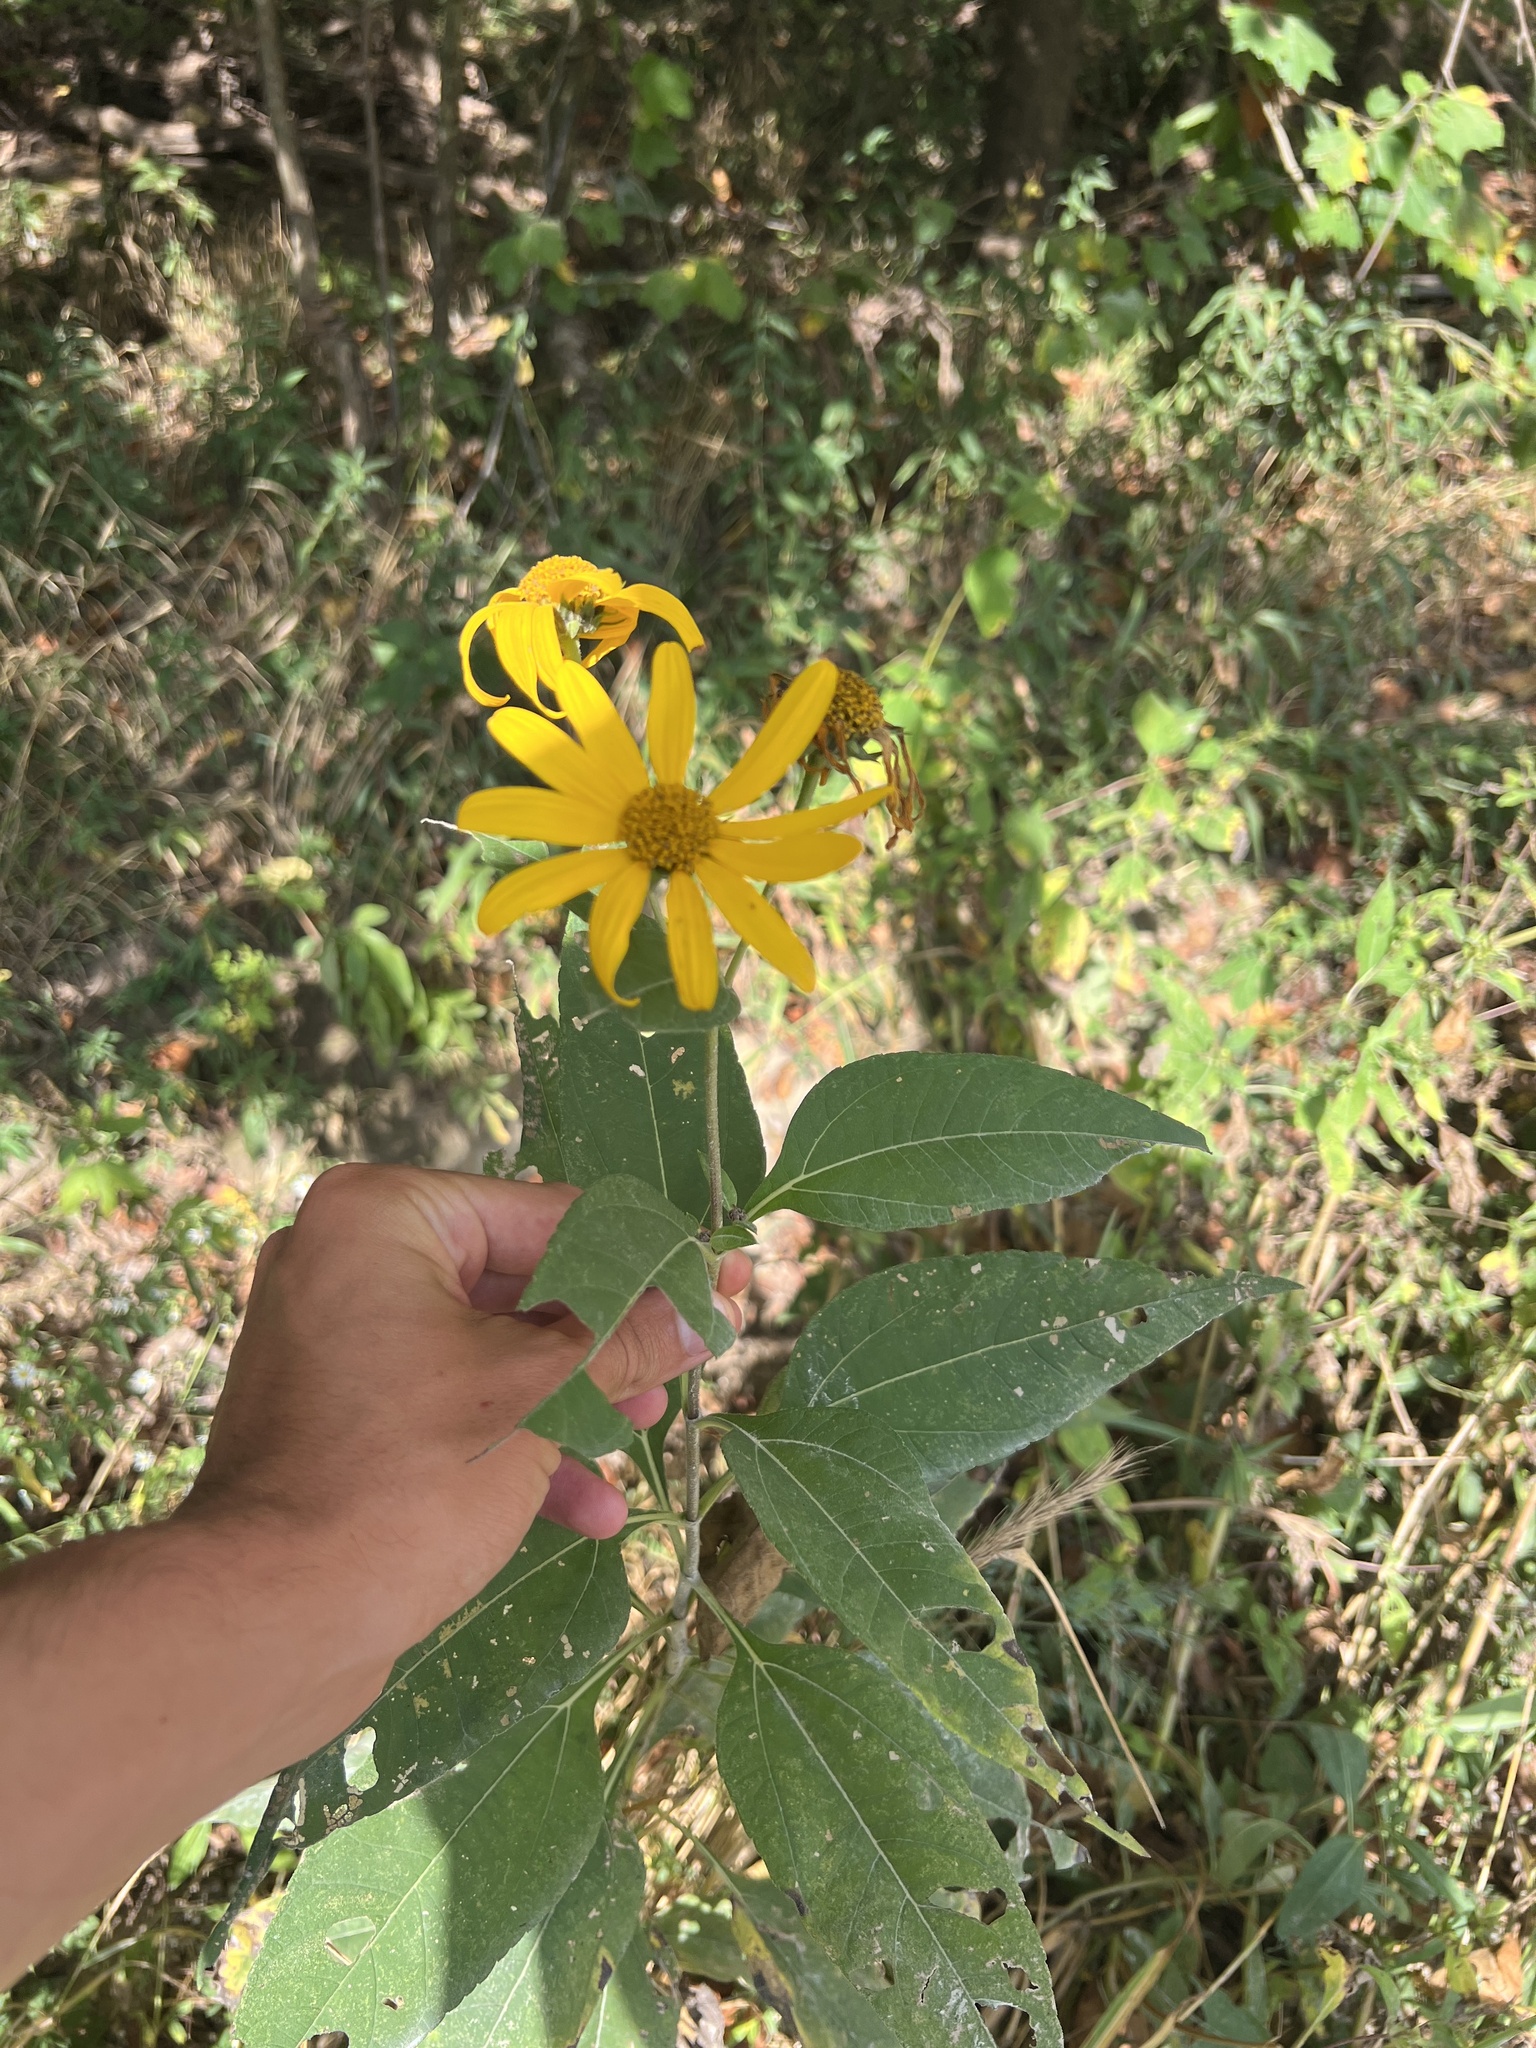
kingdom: Plantae
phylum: Tracheophyta
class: Magnoliopsida
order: Asterales
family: Asteraceae
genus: Helianthus
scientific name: Helianthus tuberosus
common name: Jerusalem artichoke
